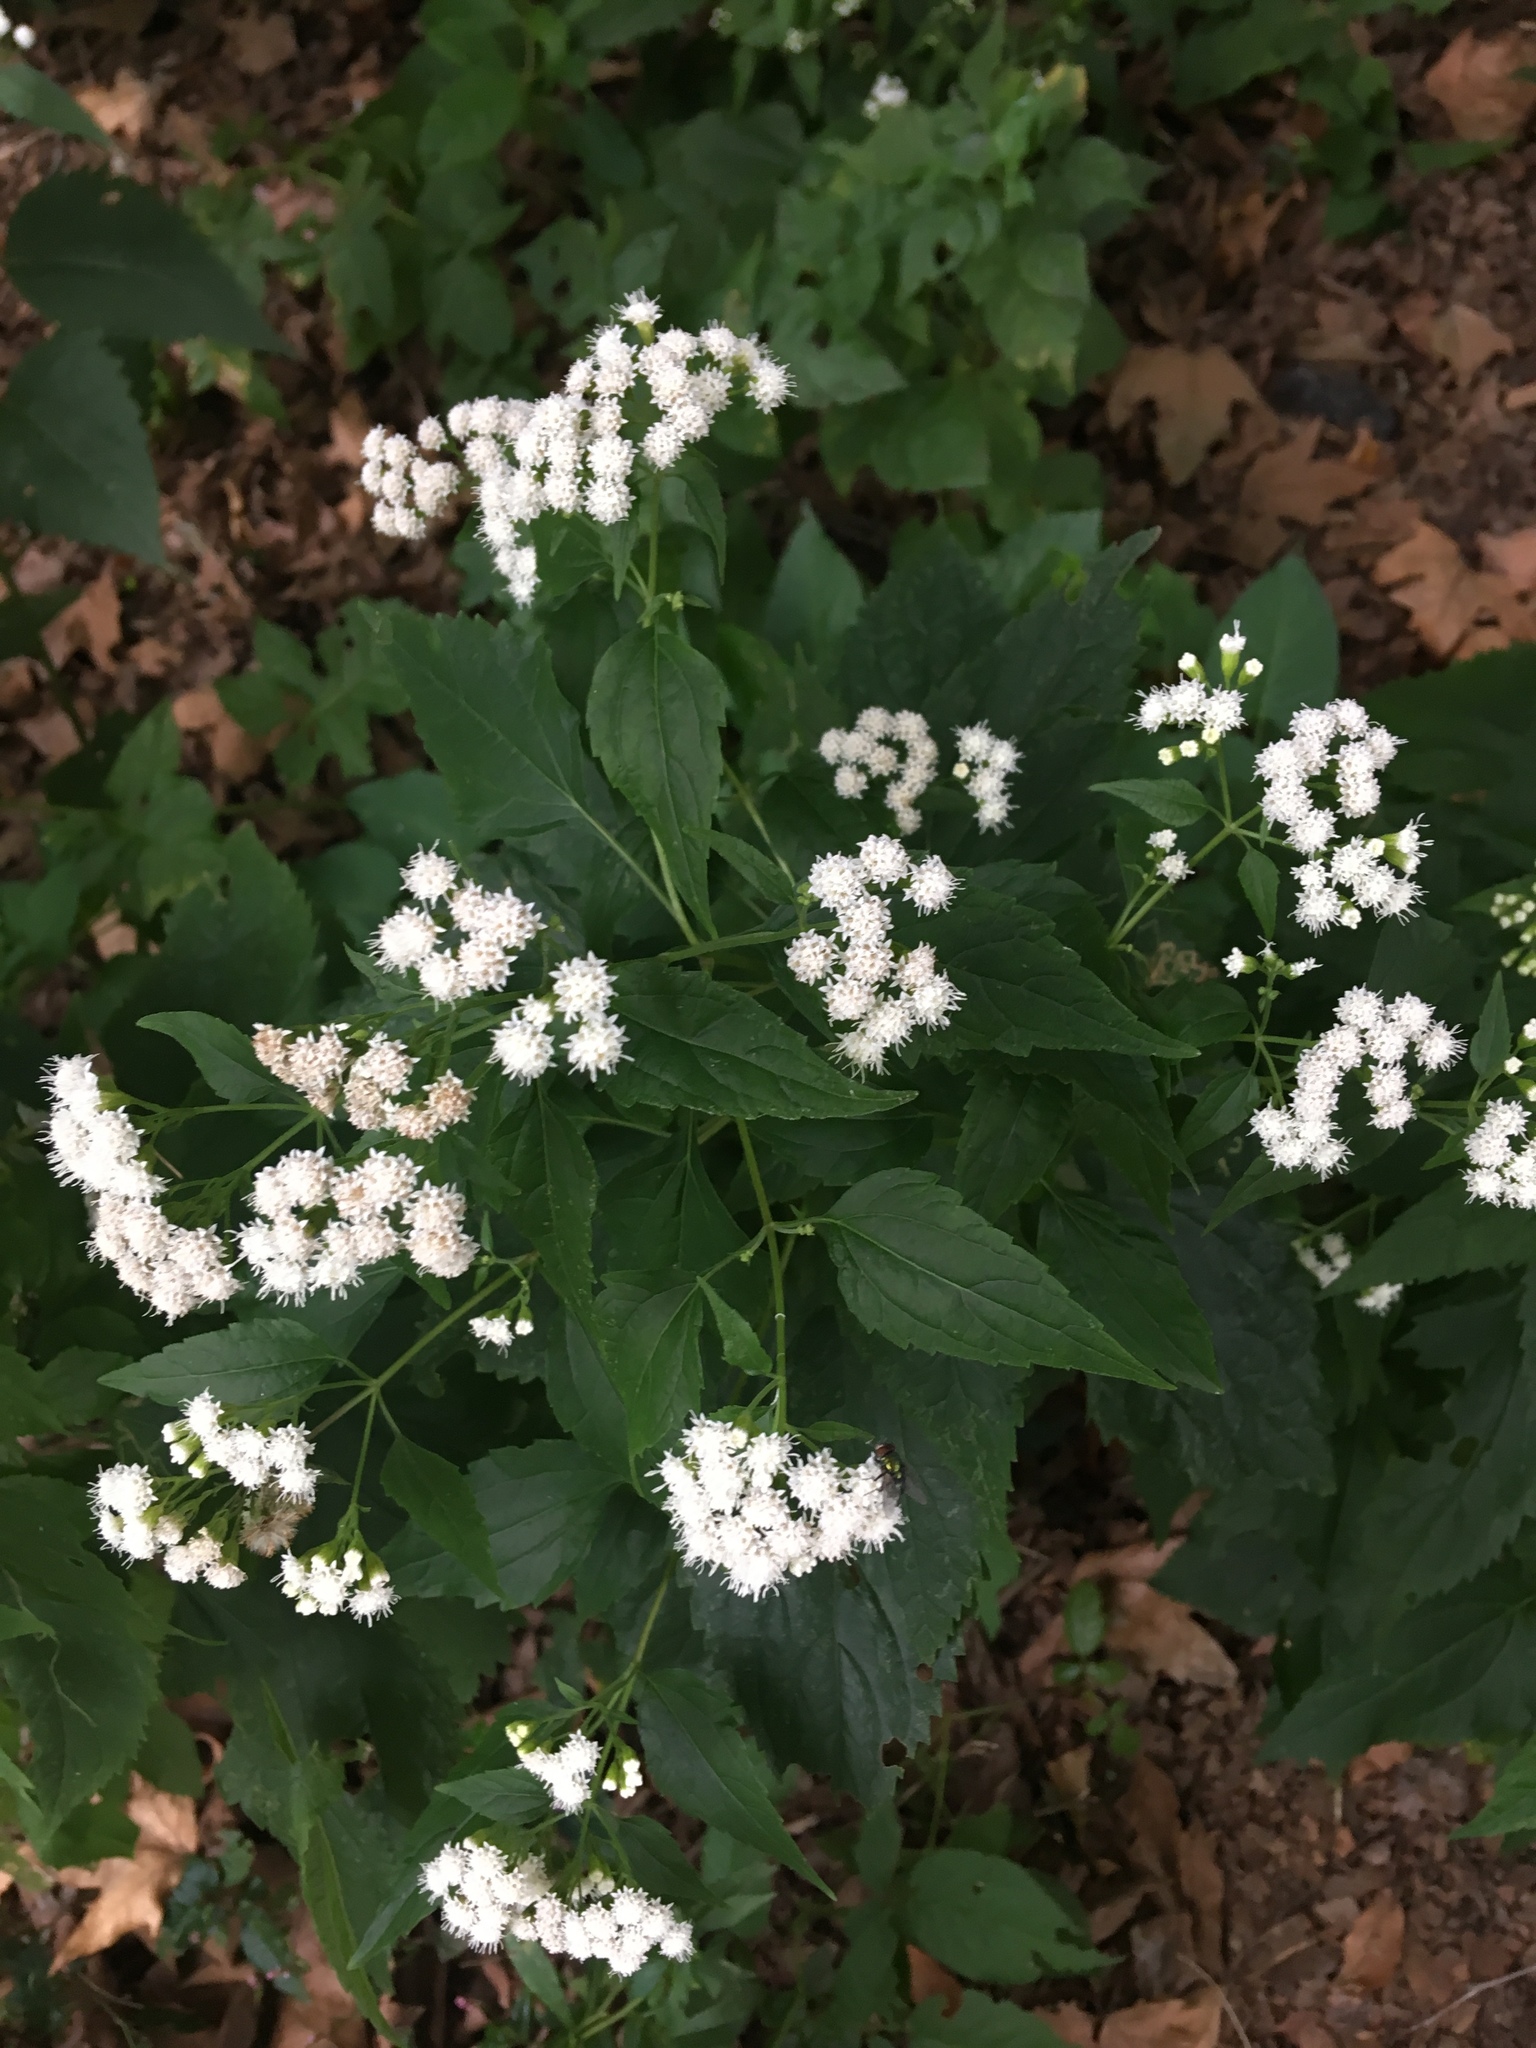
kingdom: Plantae
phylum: Tracheophyta
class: Magnoliopsida
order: Asterales
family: Asteraceae
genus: Ageratina
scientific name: Ageratina altissima
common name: White snakeroot
